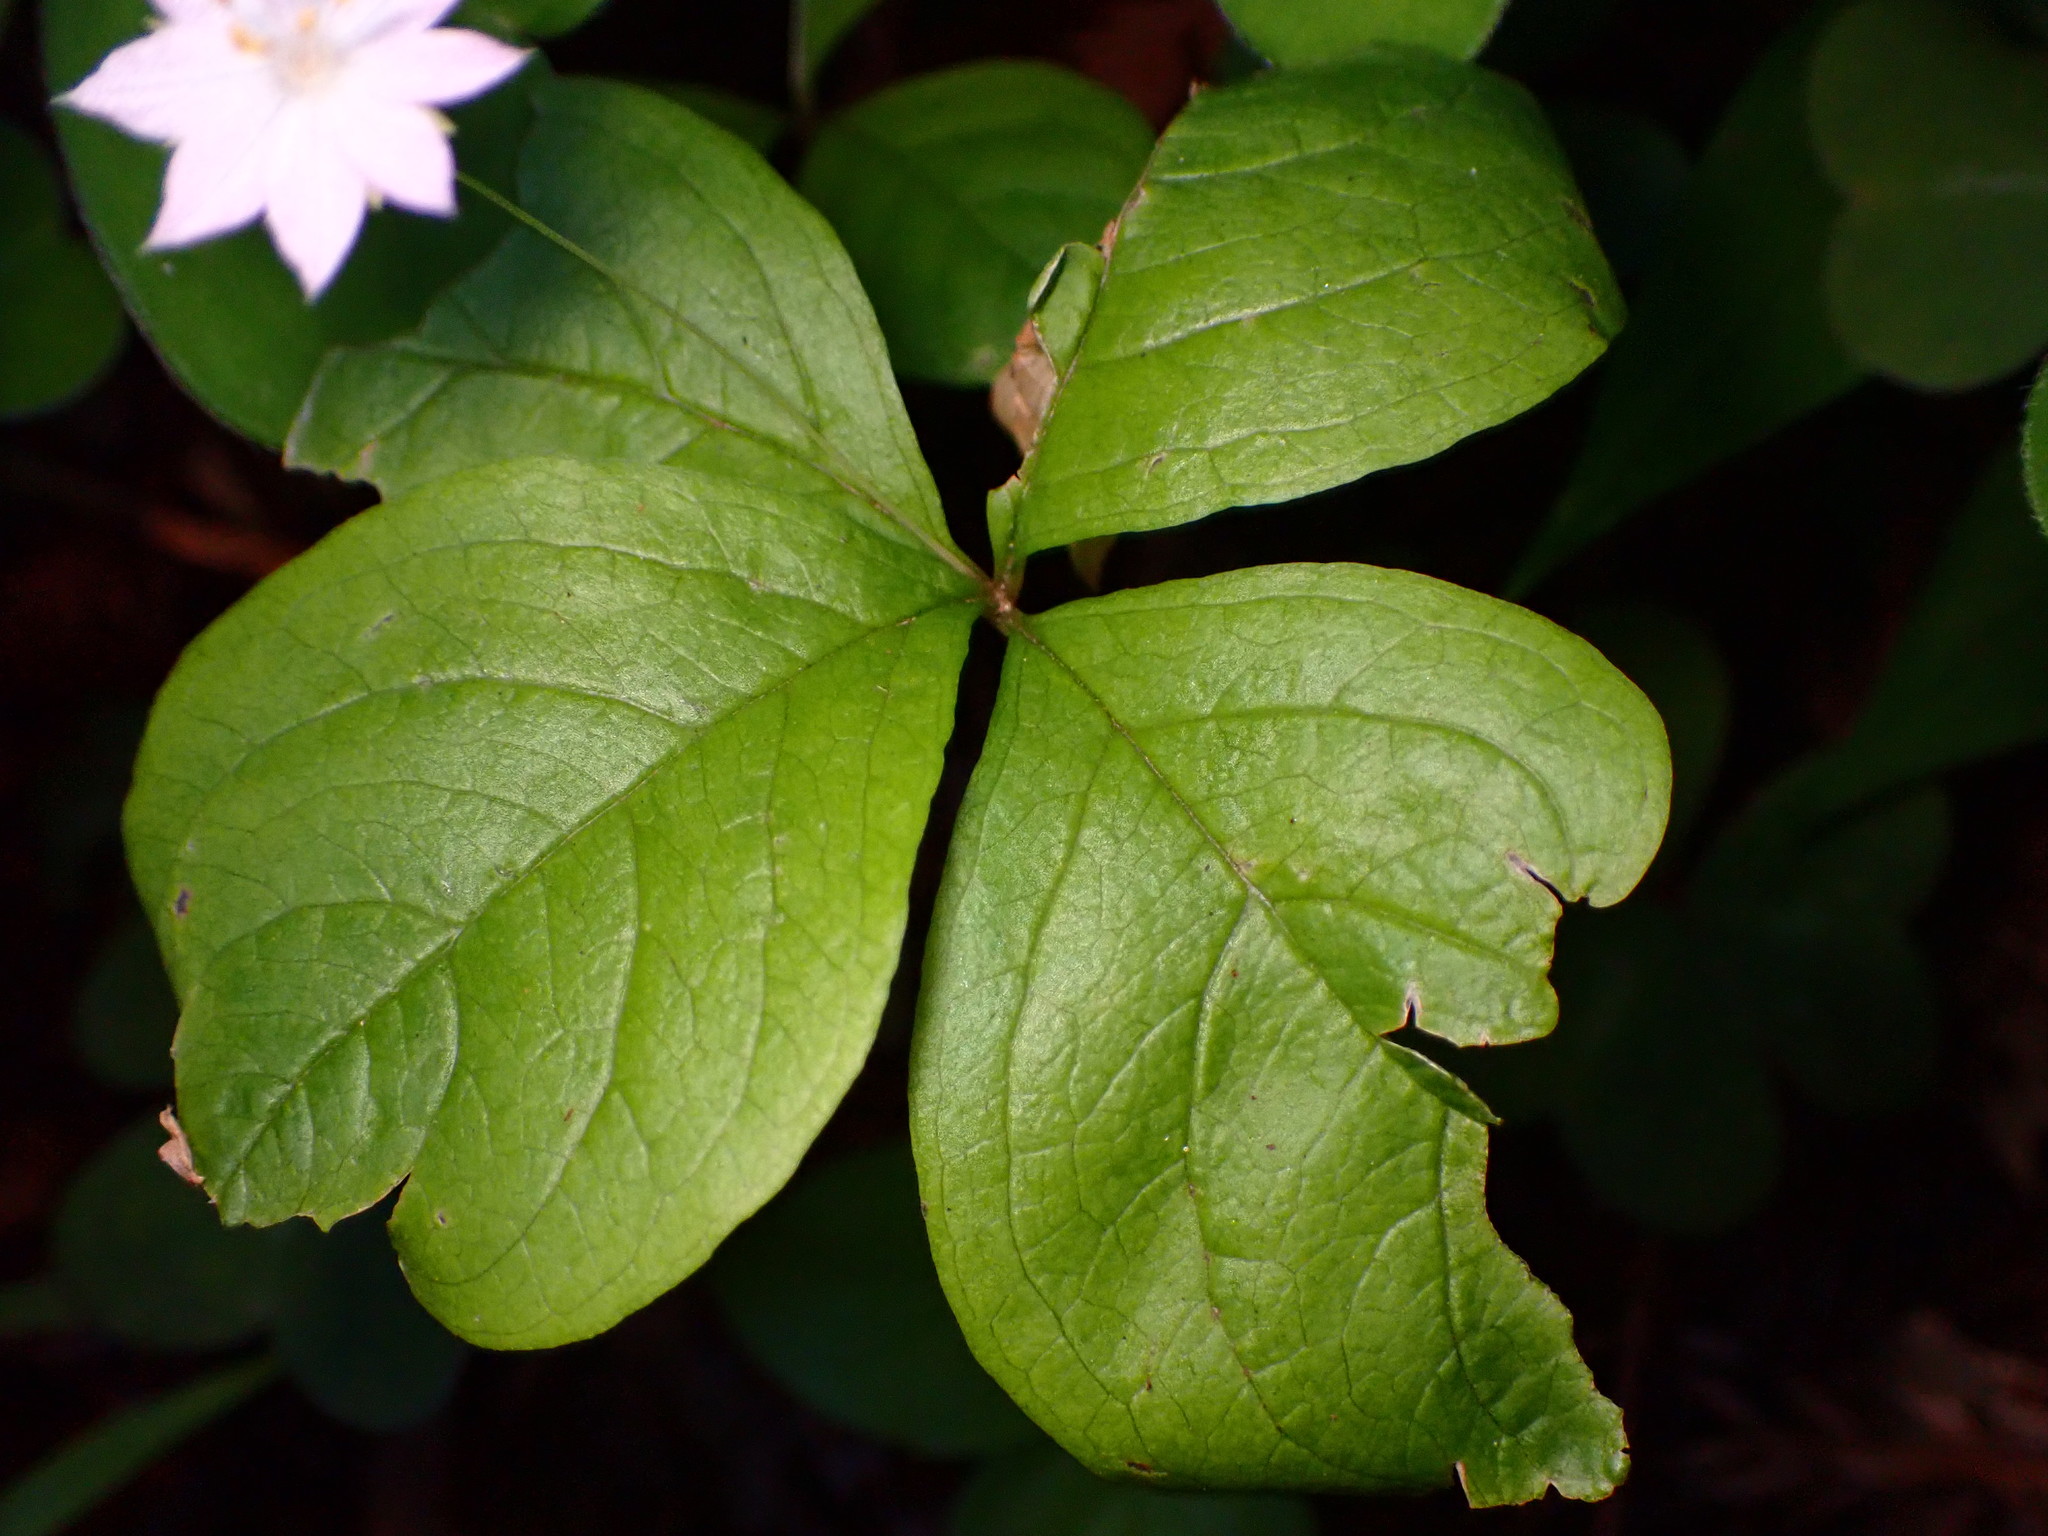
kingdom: Plantae
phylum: Tracheophyta
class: Magnoliopsida
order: Ericales
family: Primulaceae
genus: Lysimachia
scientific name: Lysimachia latifolia
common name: Pacific starflower
